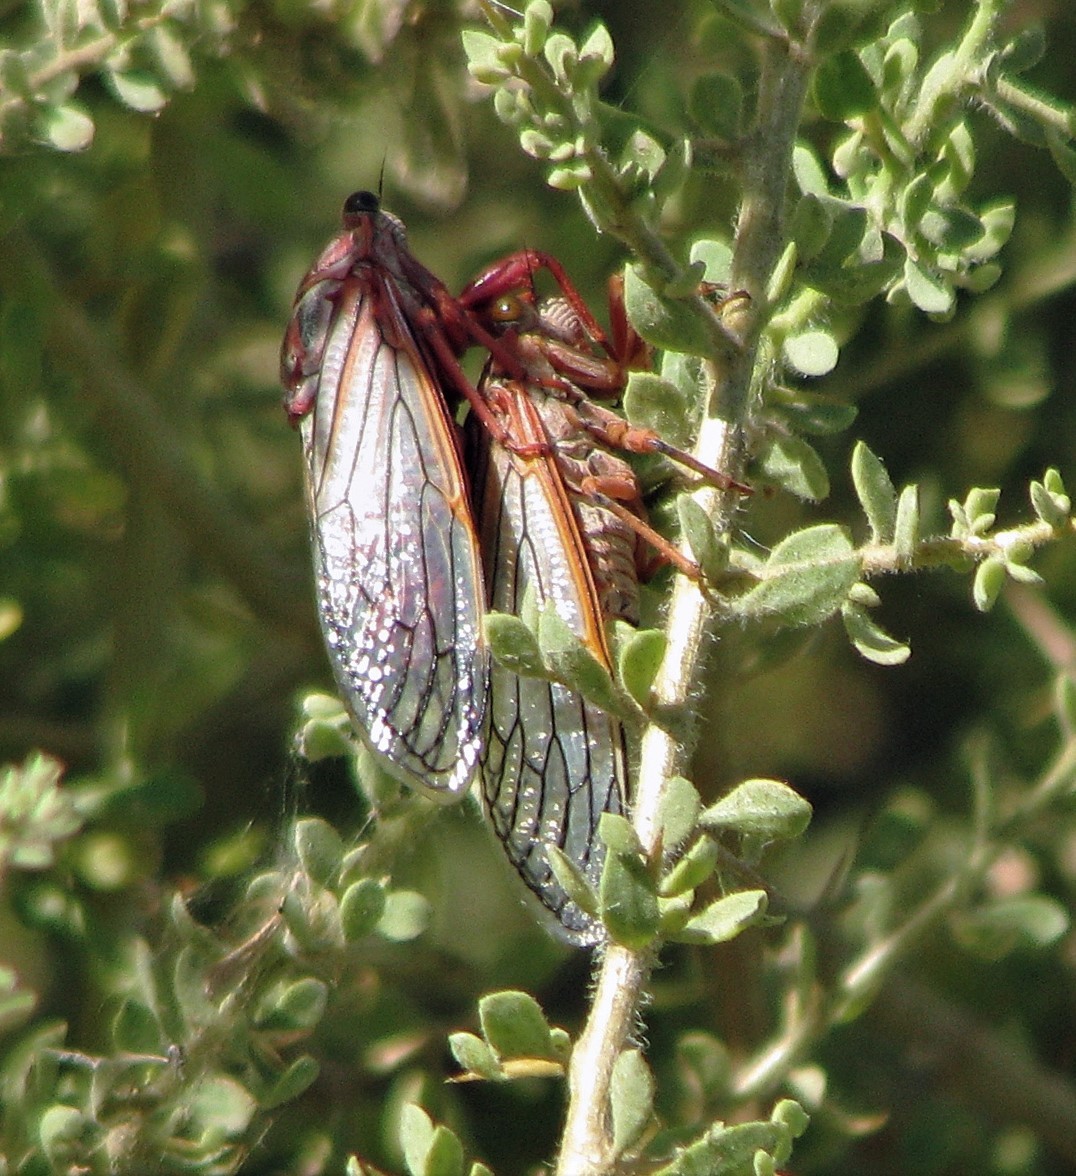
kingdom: Animalia
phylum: Arthropoda
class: Insecta
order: Hemiptera
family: Cicadidae
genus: Calliopsida
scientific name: Calliopsida cinnabarina
